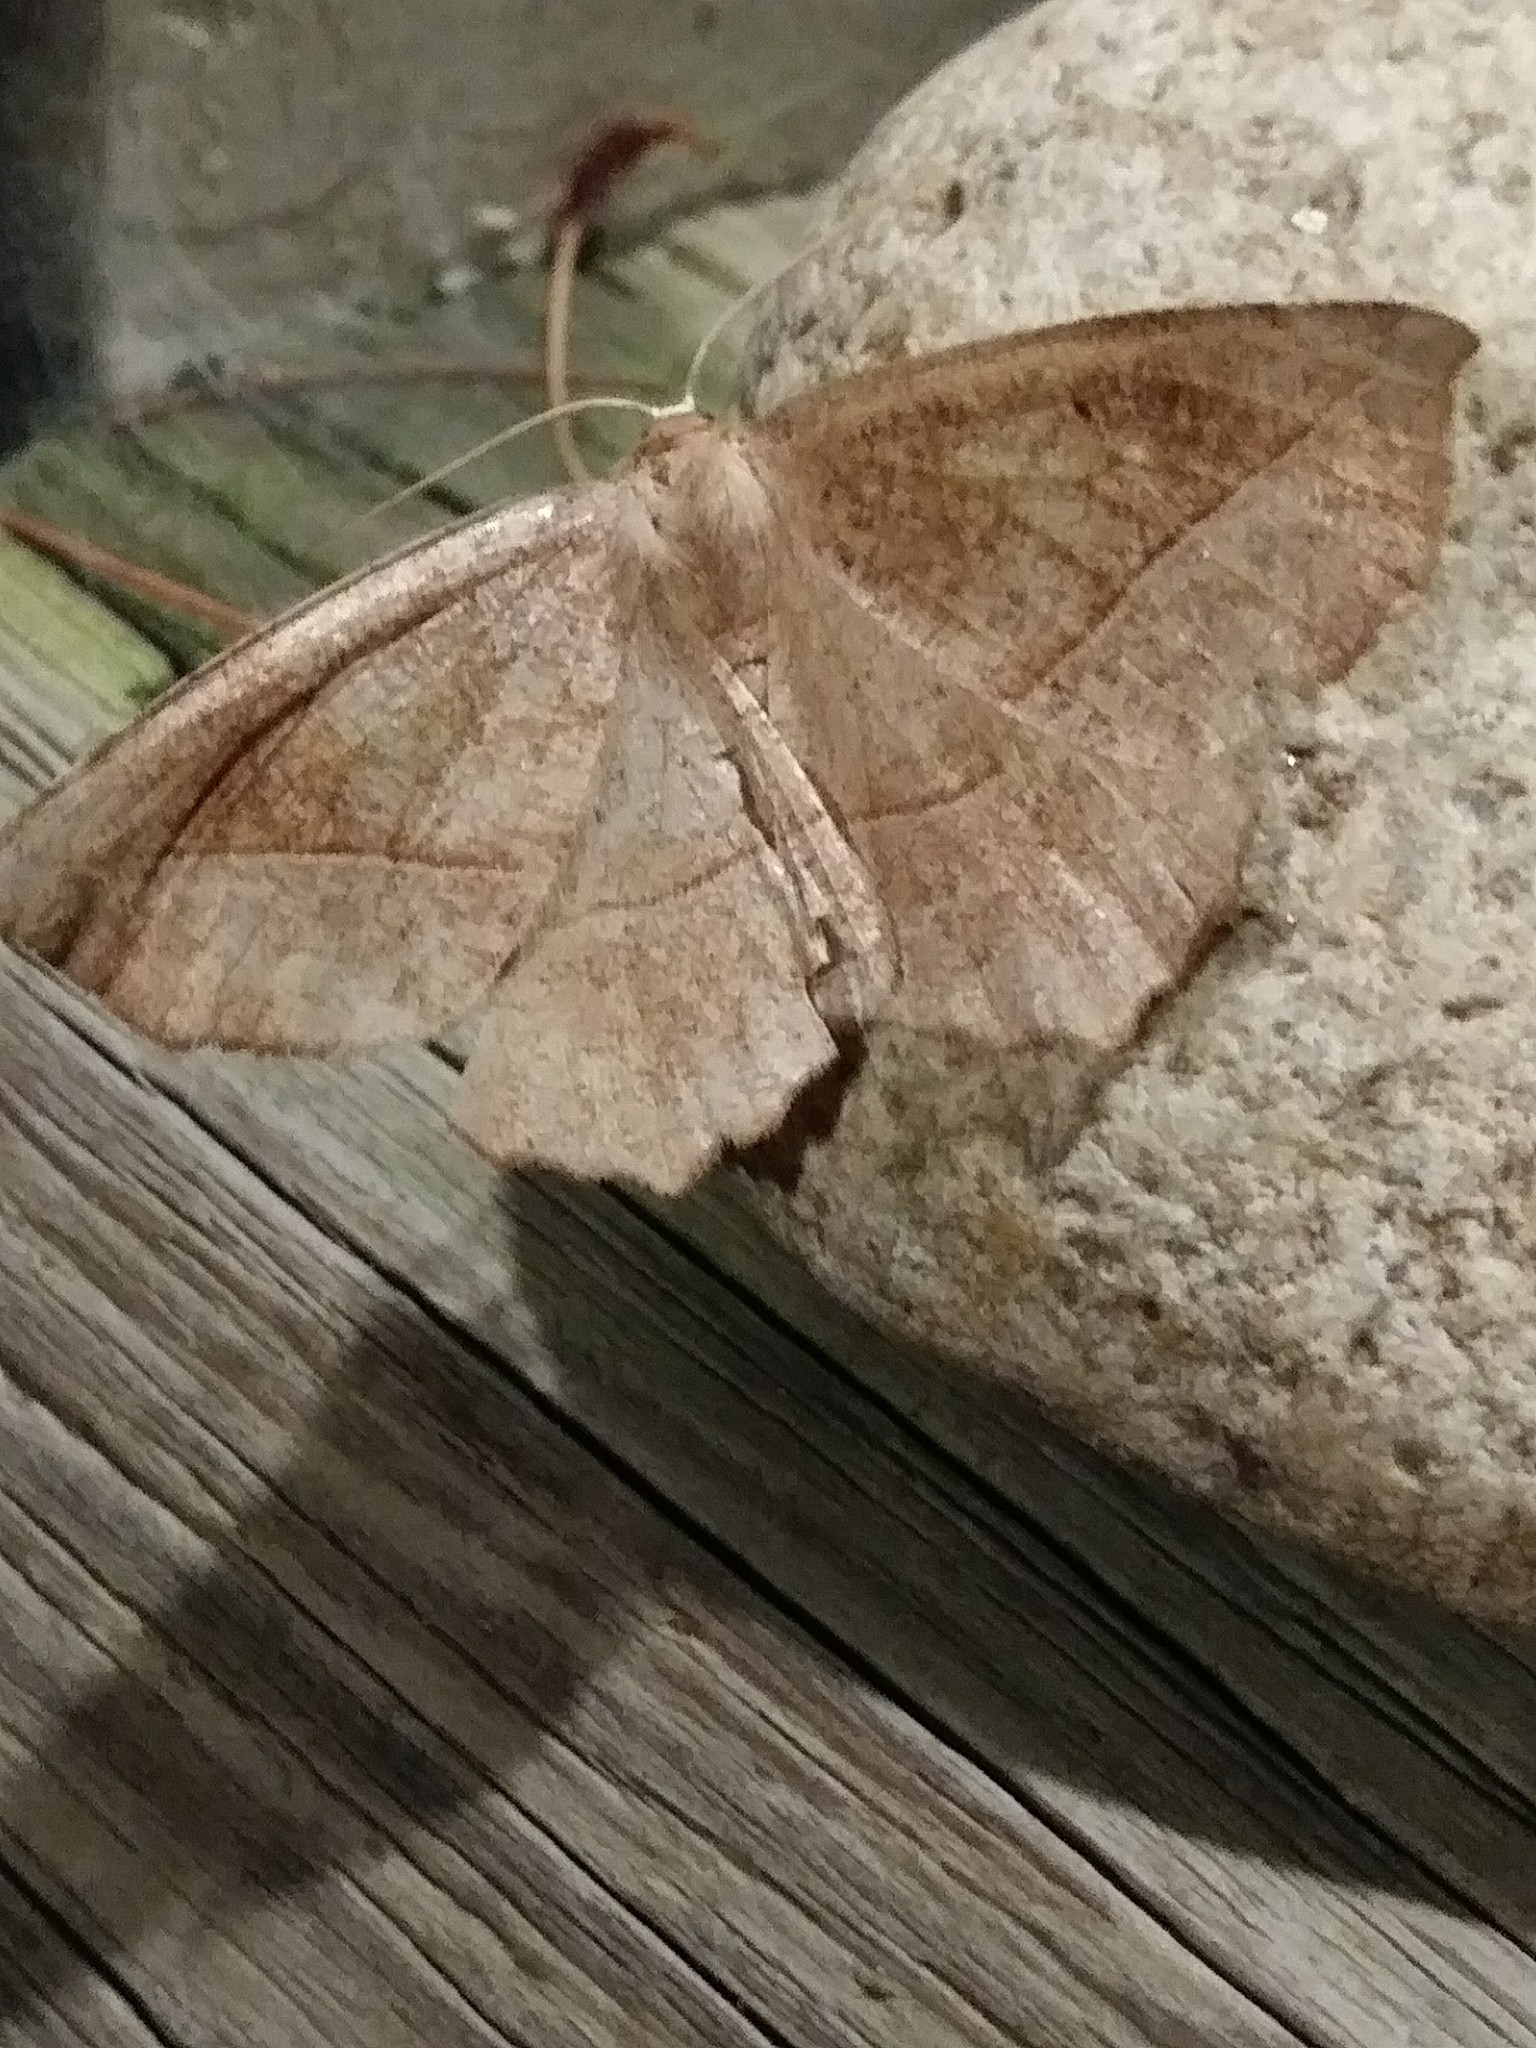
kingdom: Animalia
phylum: Arthropoda
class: Insecta
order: Lepidoptera
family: Geometridae
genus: Eutrapela
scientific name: Eutrapela clemataria
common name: Curved-toothed geometer
